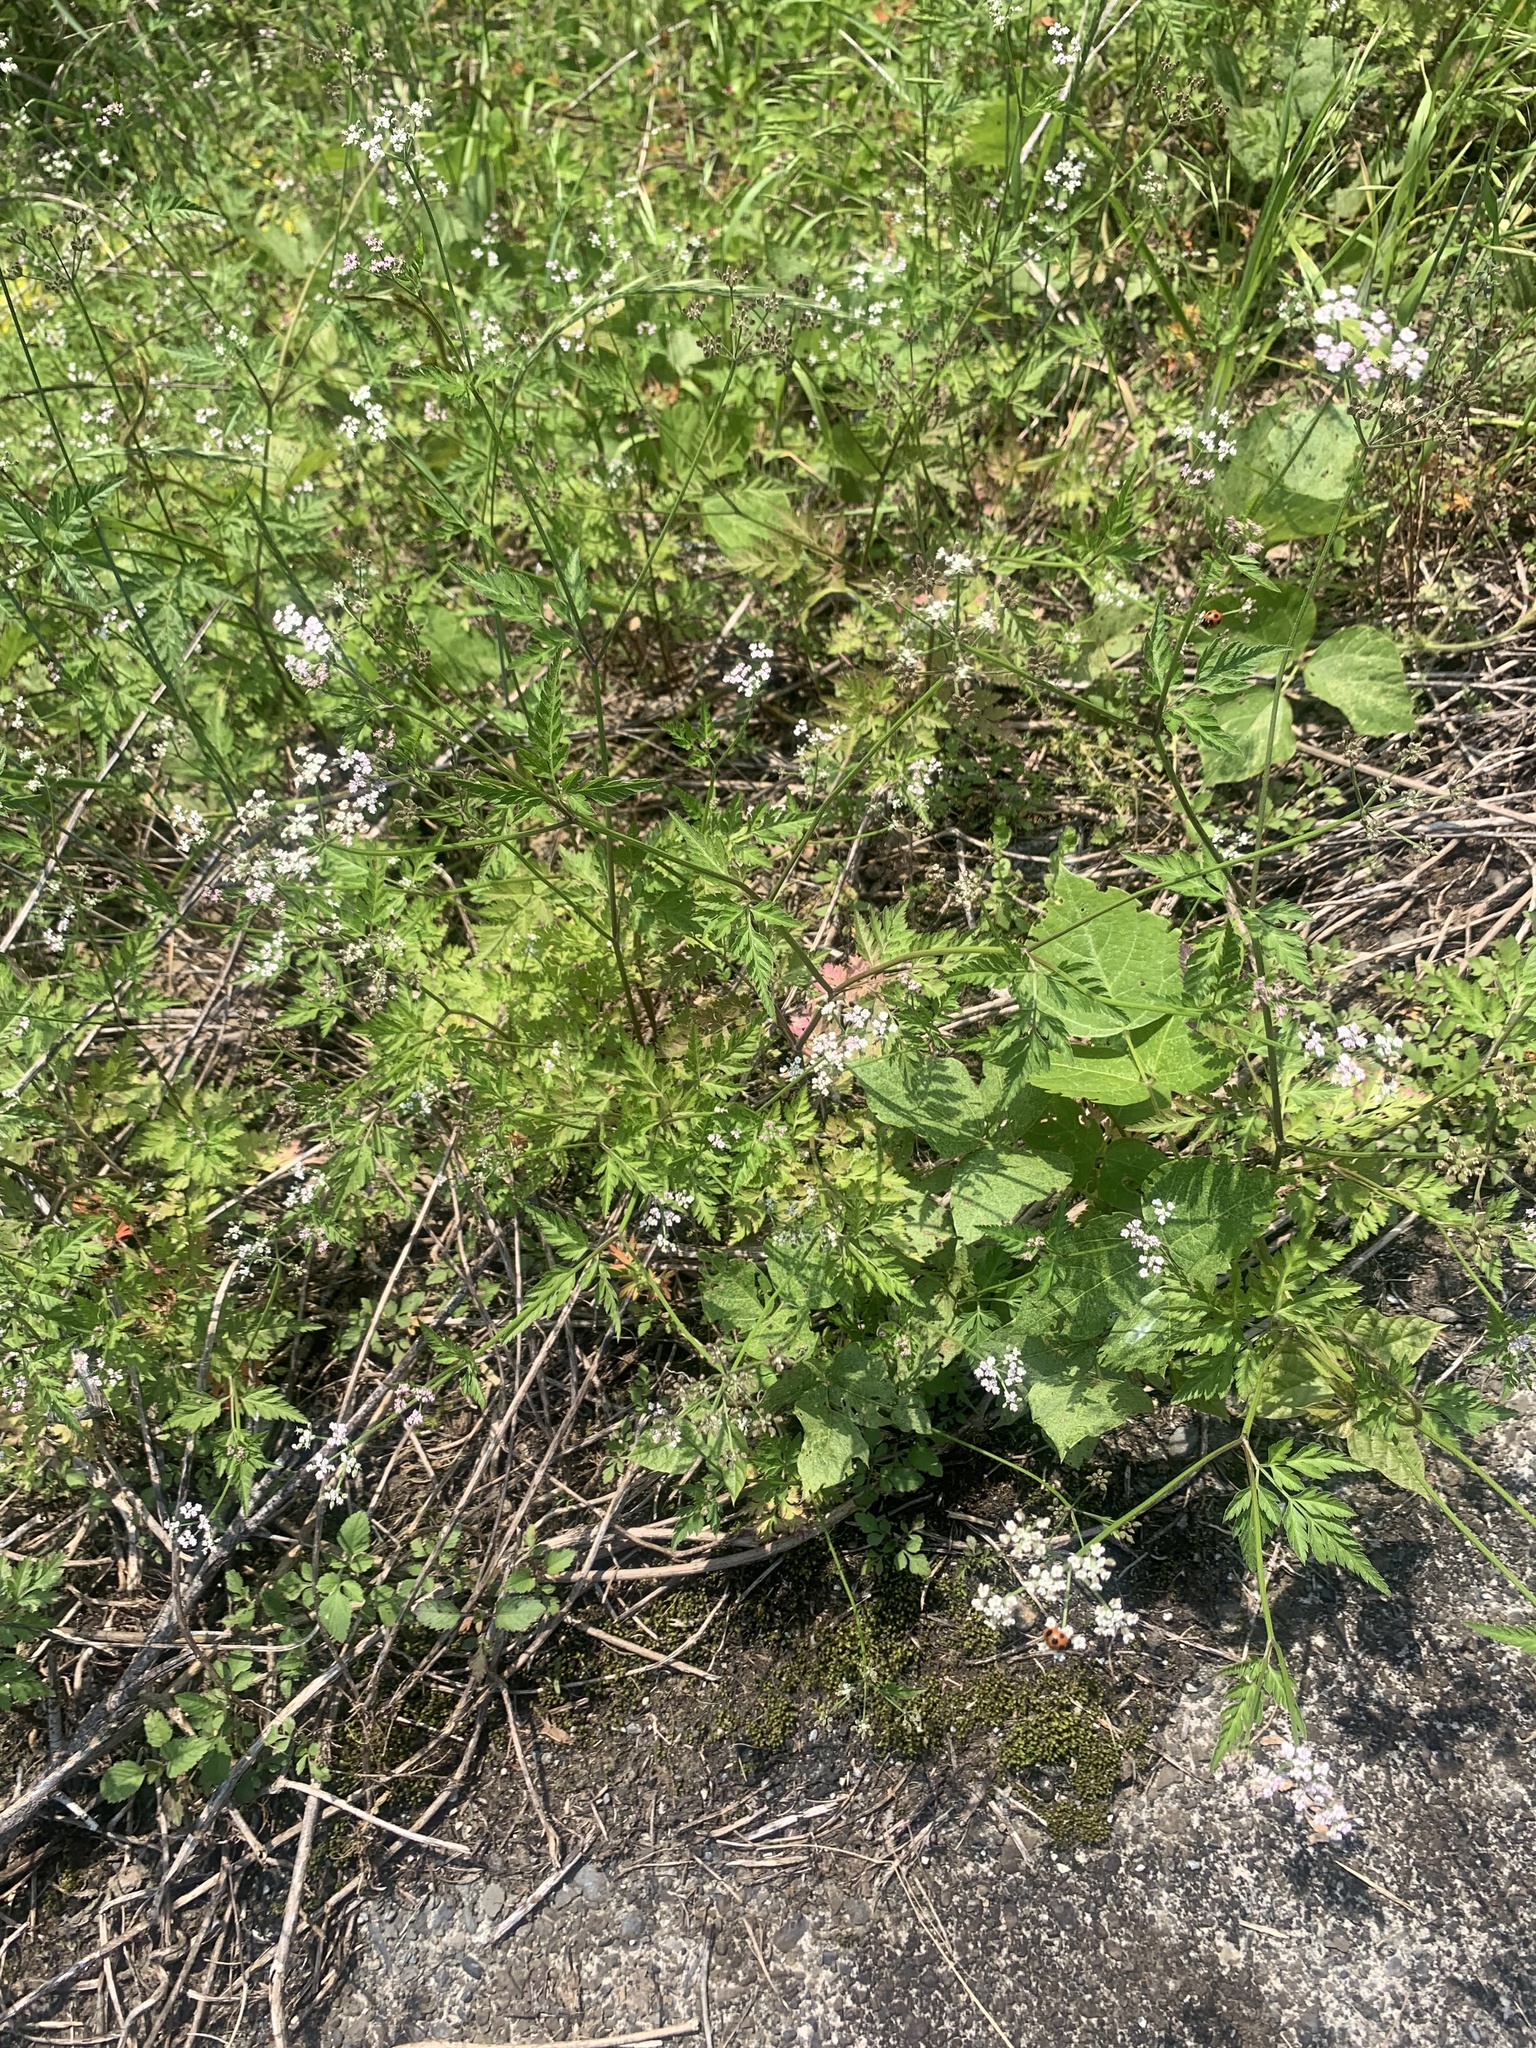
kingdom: Plantae
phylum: Tracheophyta
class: Magnoliopsida
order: Apiales
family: Apiaceae
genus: Torilis
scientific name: Torilis japonica
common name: Upright hedge-parsley
